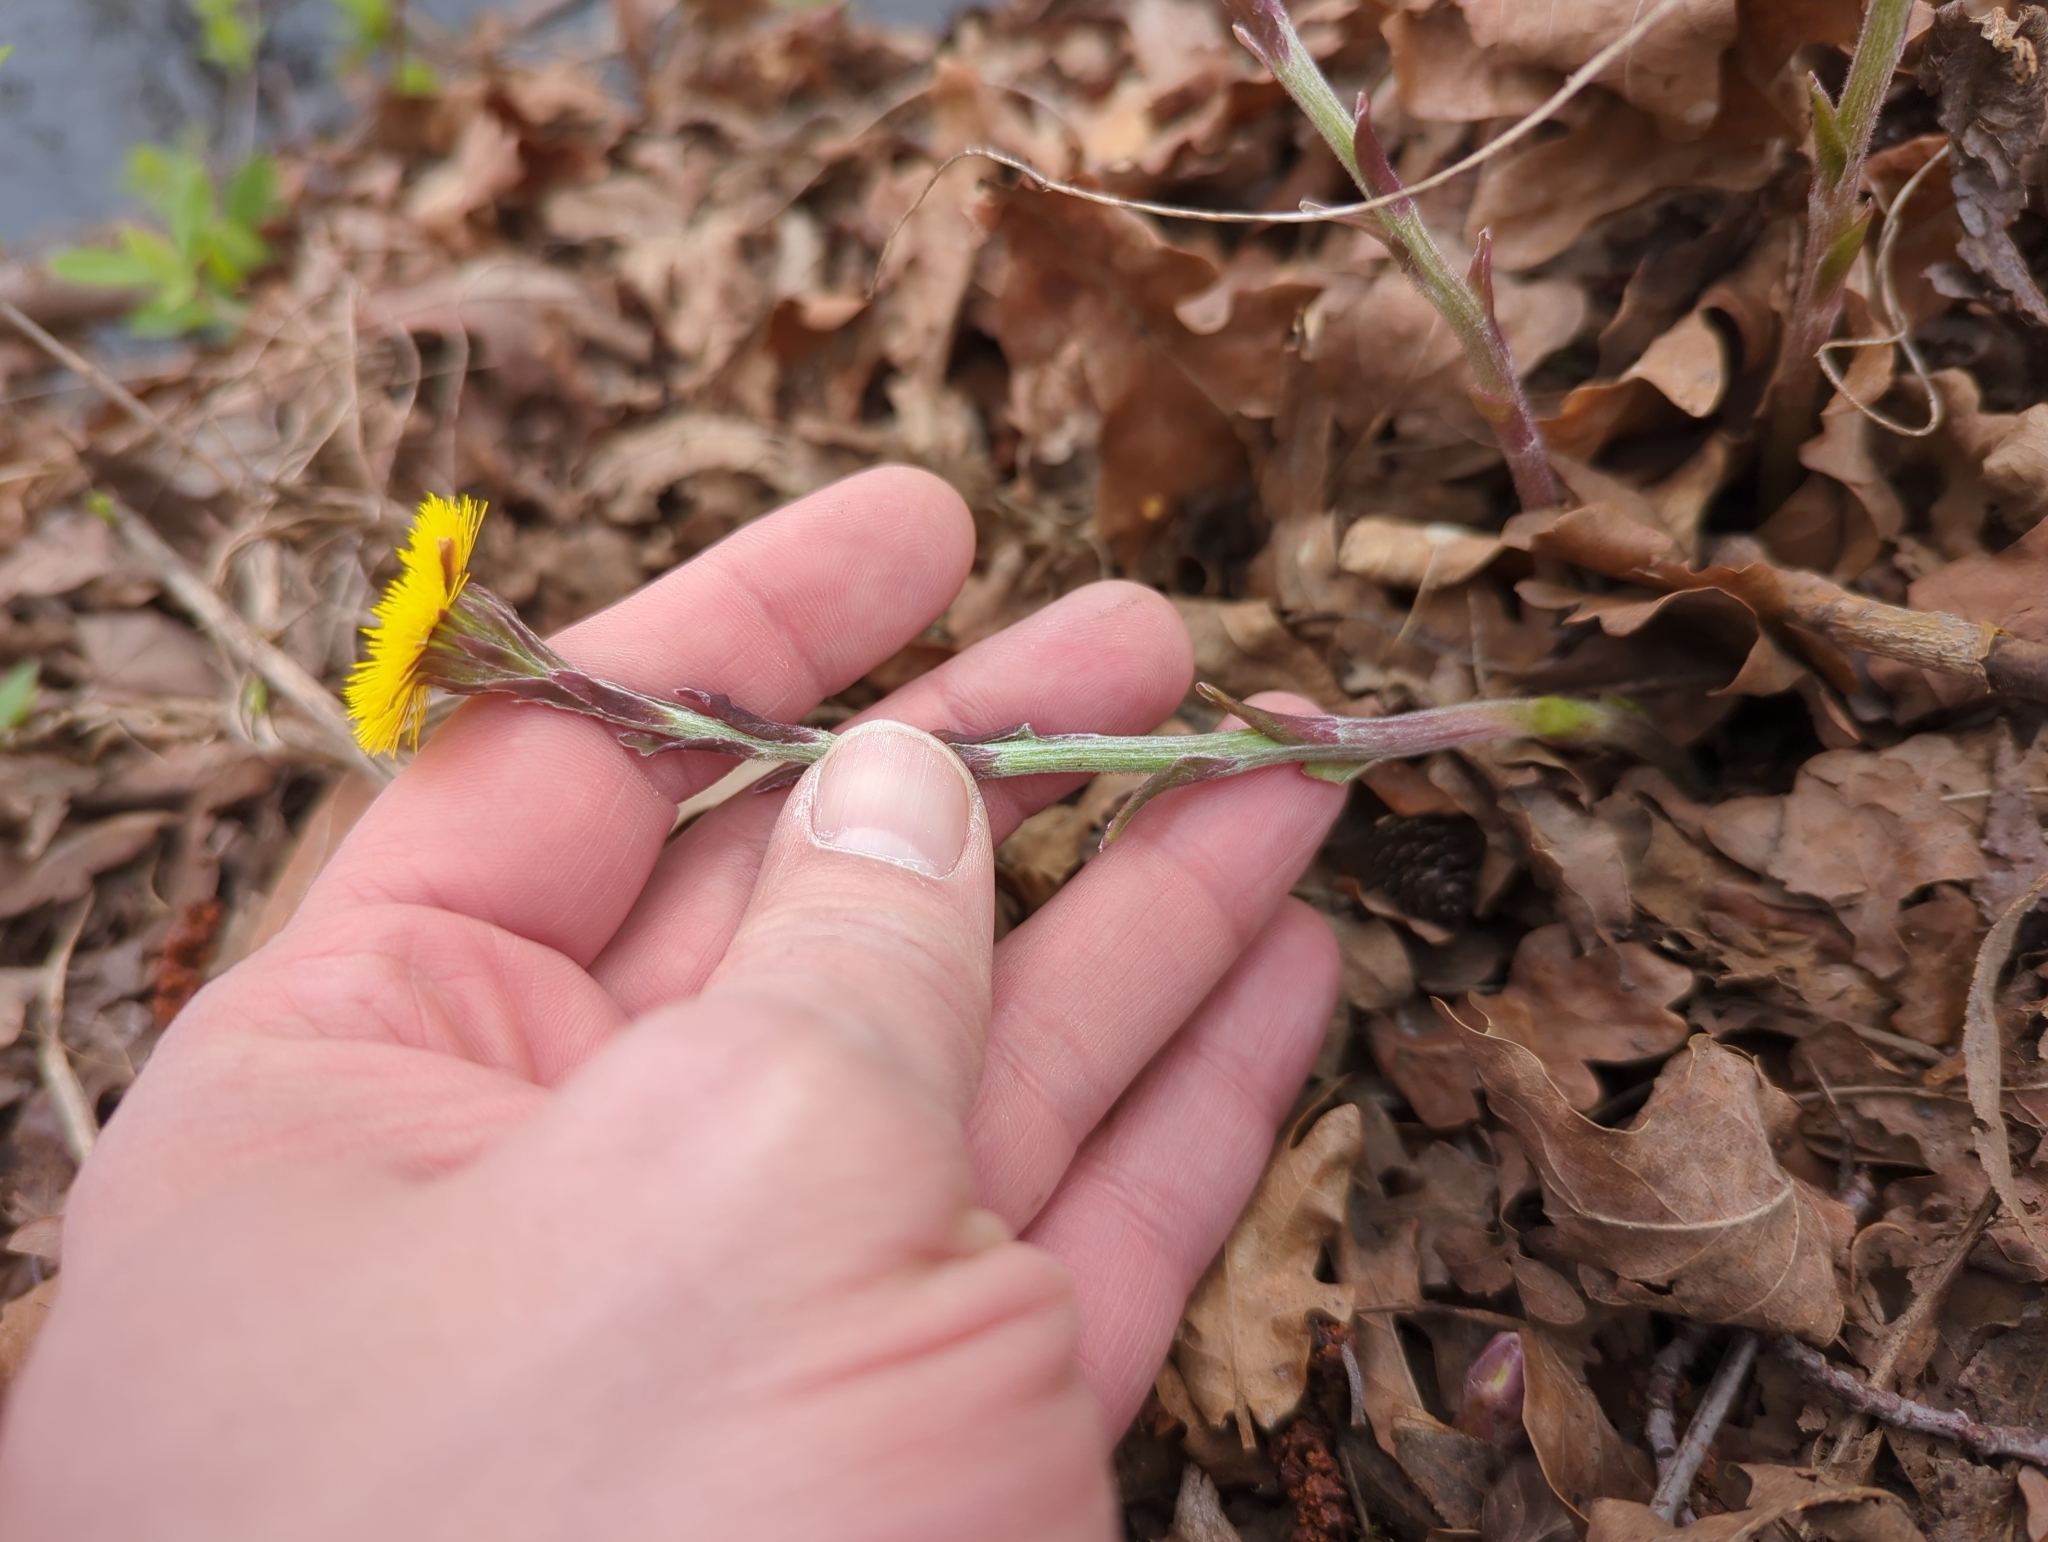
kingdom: Plantae
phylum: Tracheophyta
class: Magnoliopsida
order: Asterales
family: Asteraceae
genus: Tussilago
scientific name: Tussilago farfara
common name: Coltsfoot
